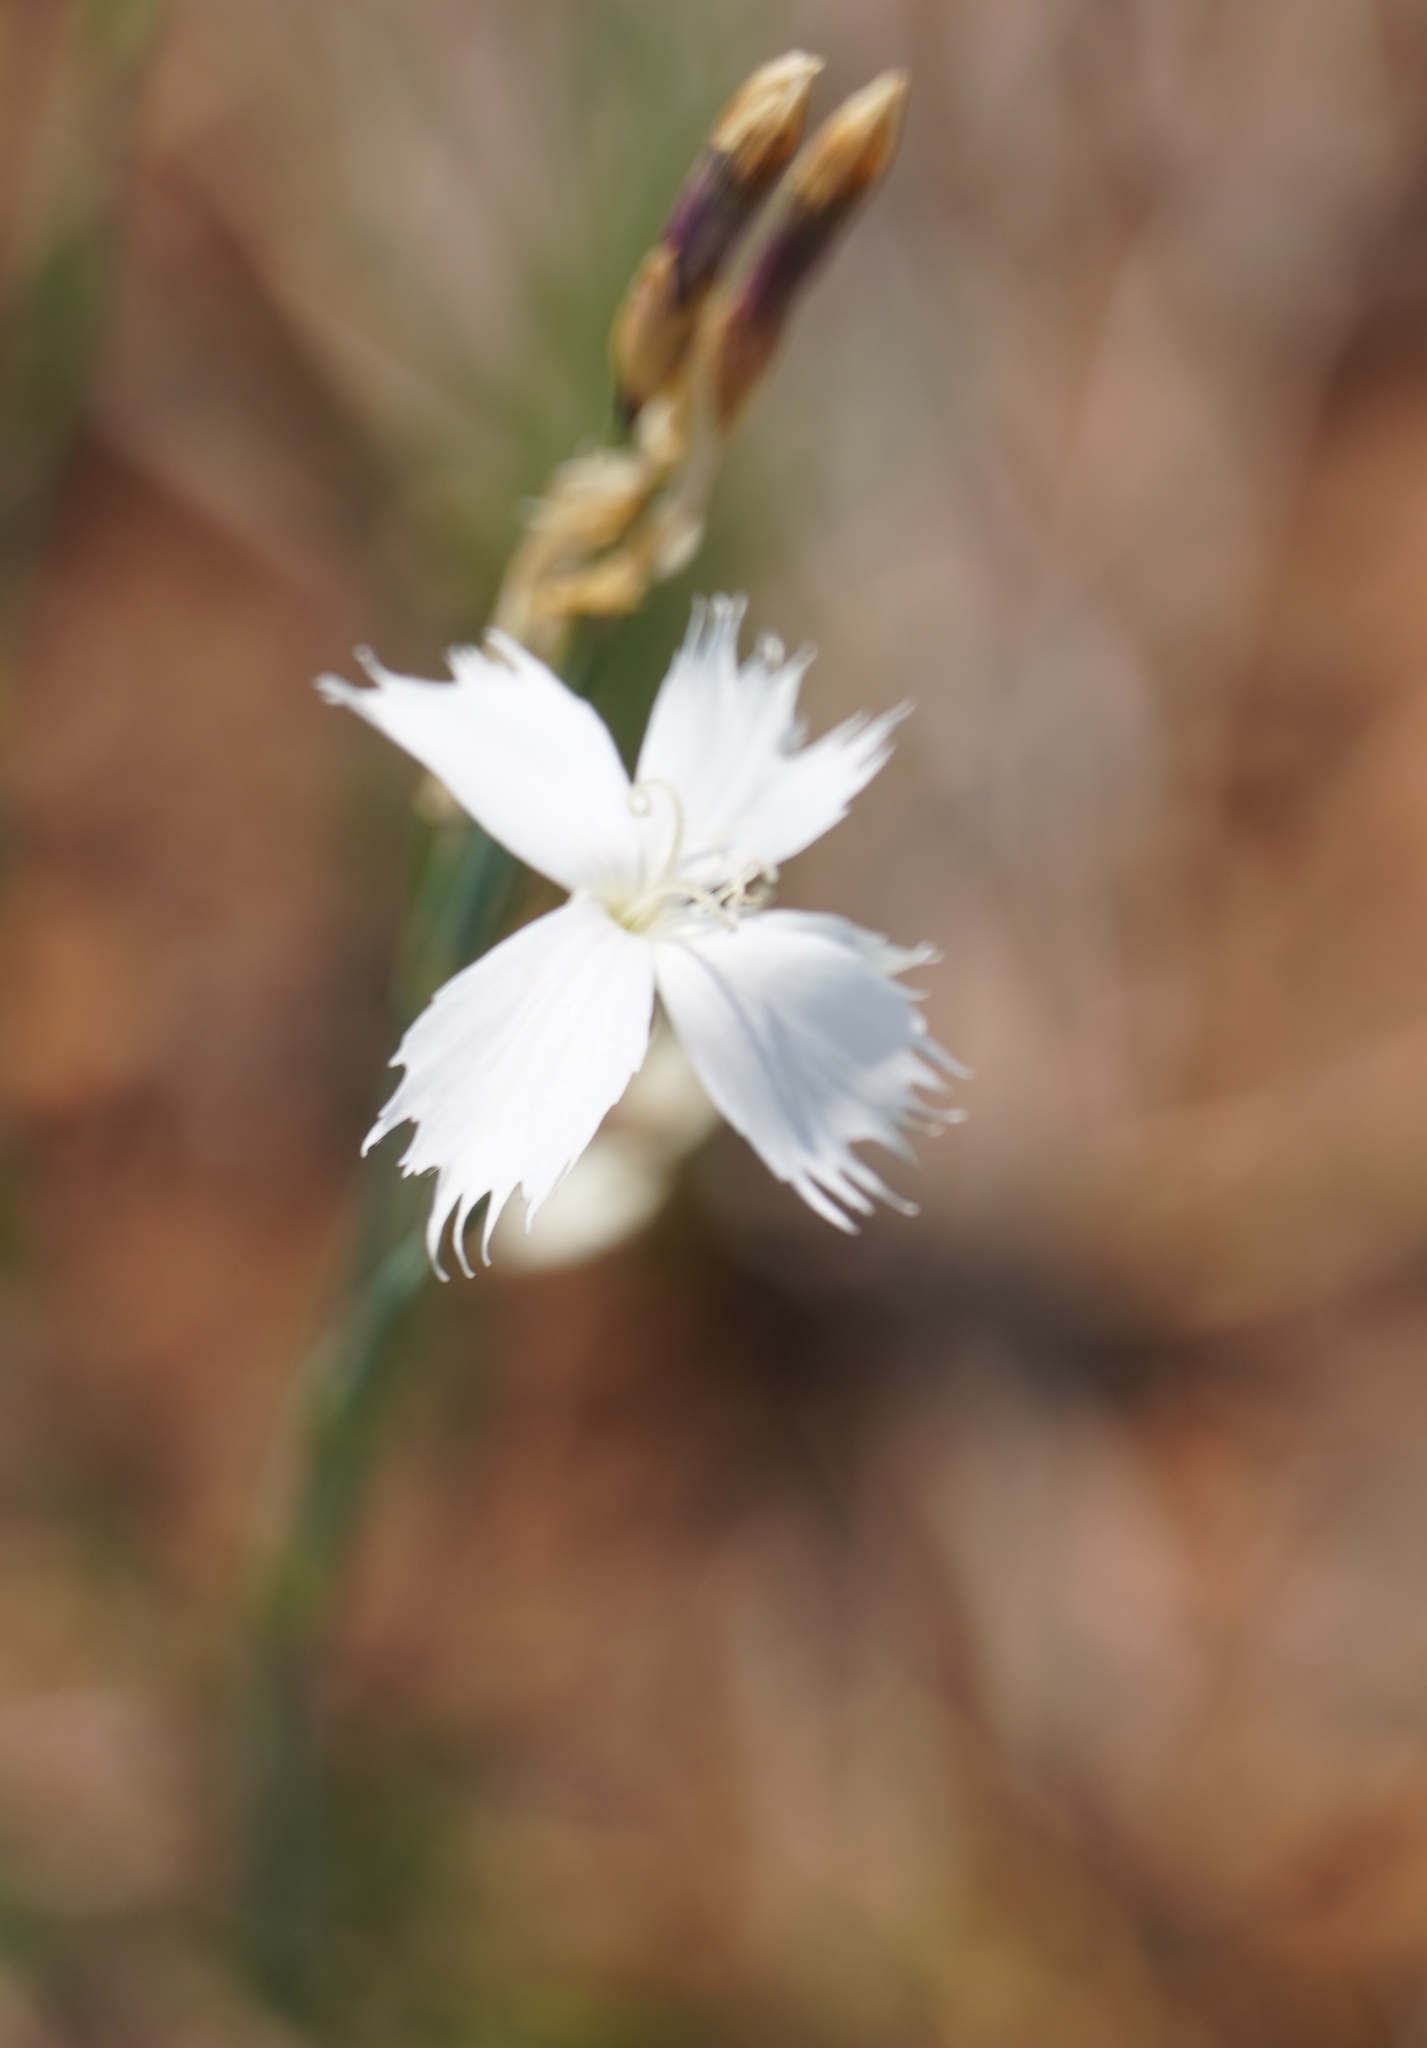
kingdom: Plantae
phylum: Tracheophyta
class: Magnoliopsida
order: Caryophyllales
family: Caryophyllaceae
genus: Dianthus
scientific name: Dianthus mooiensis
